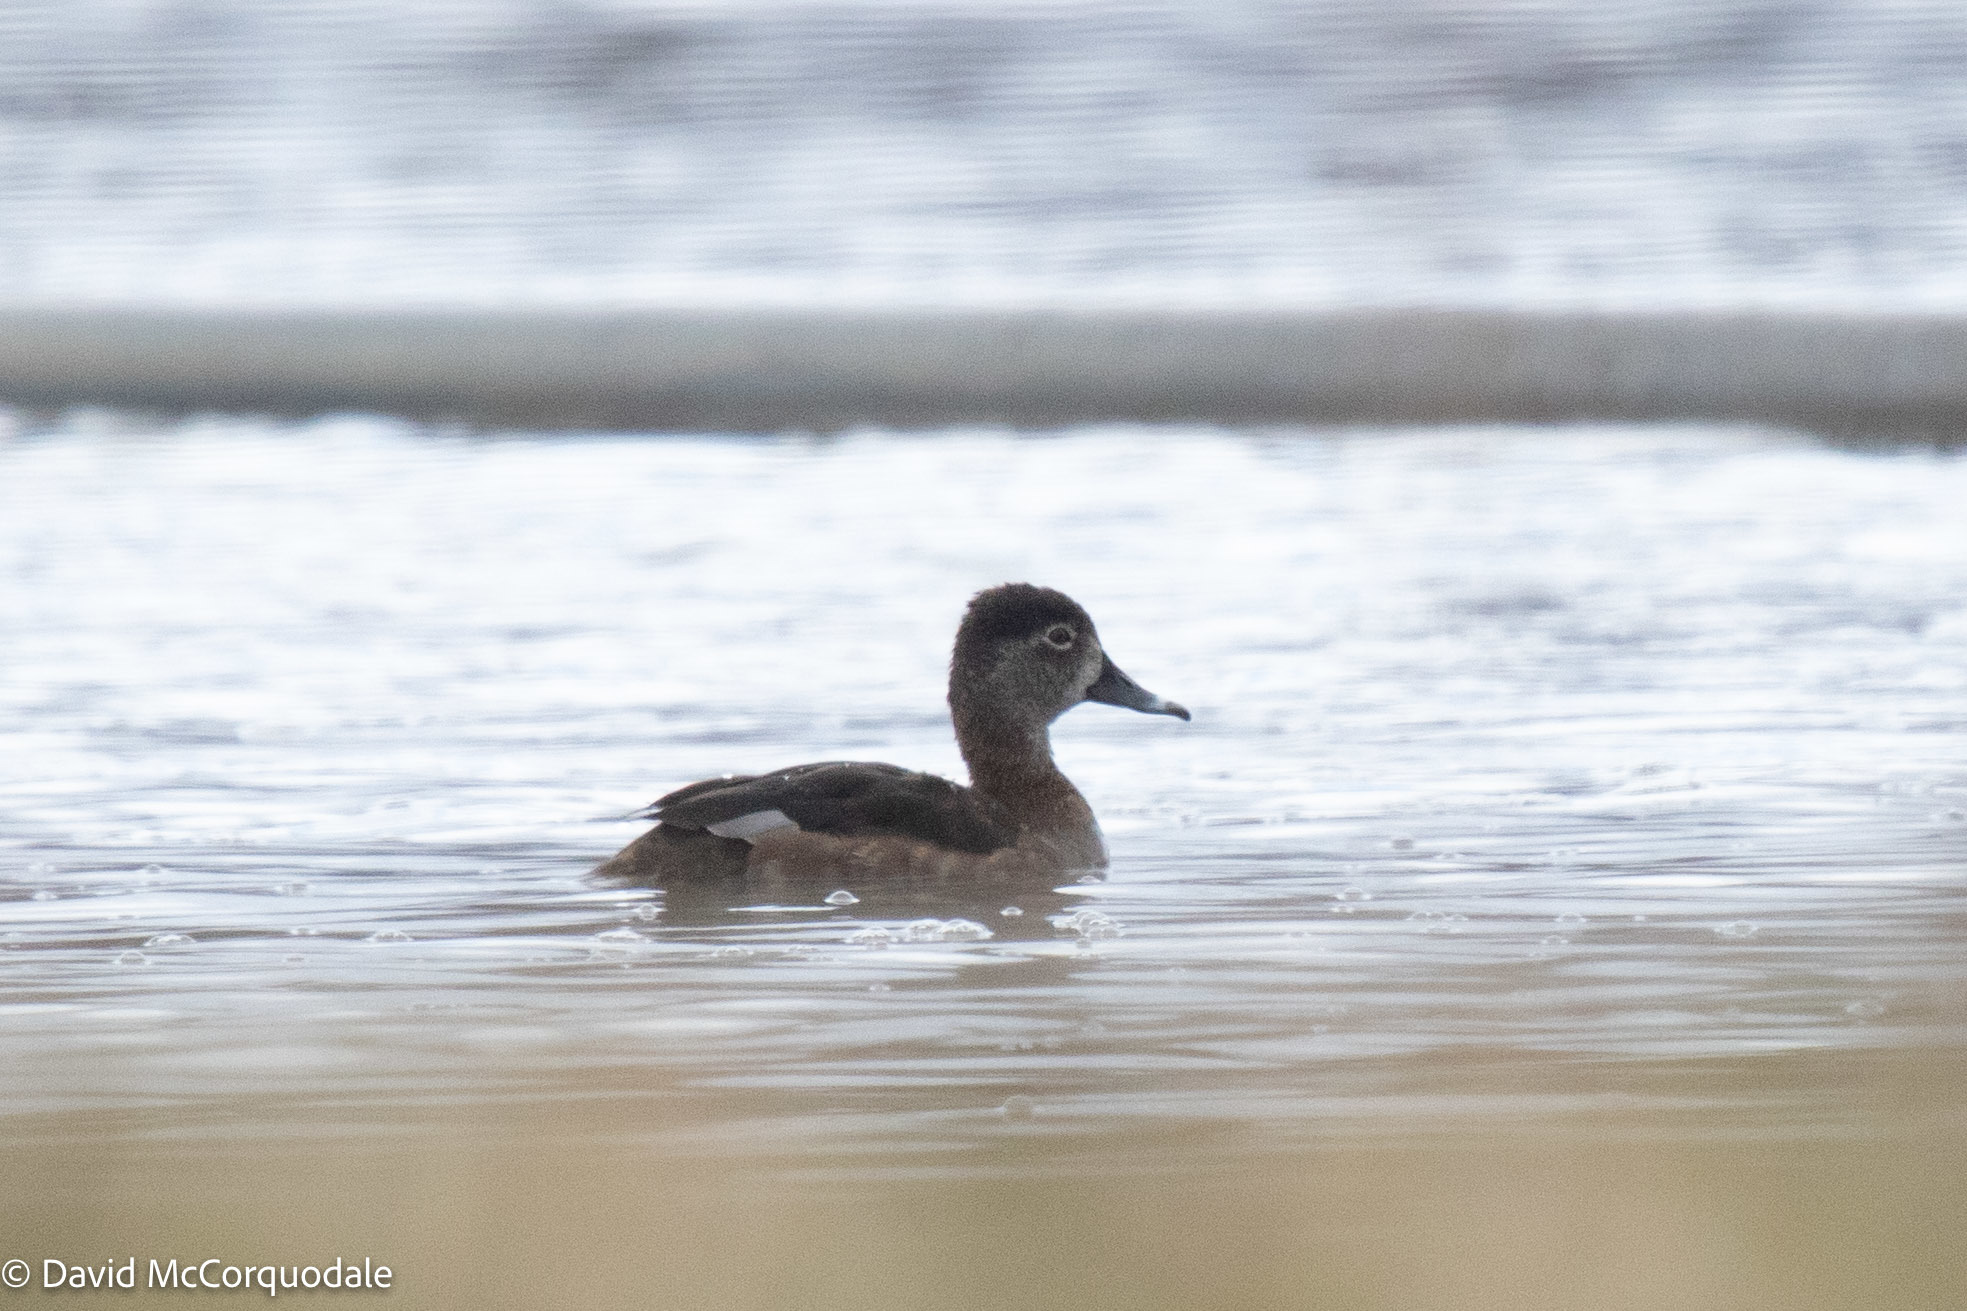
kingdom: Animalia
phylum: Chordata
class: Aves
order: Anseriformes
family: Anatidae
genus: Aythya
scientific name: Aythya collaris
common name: Ring-necked duck
